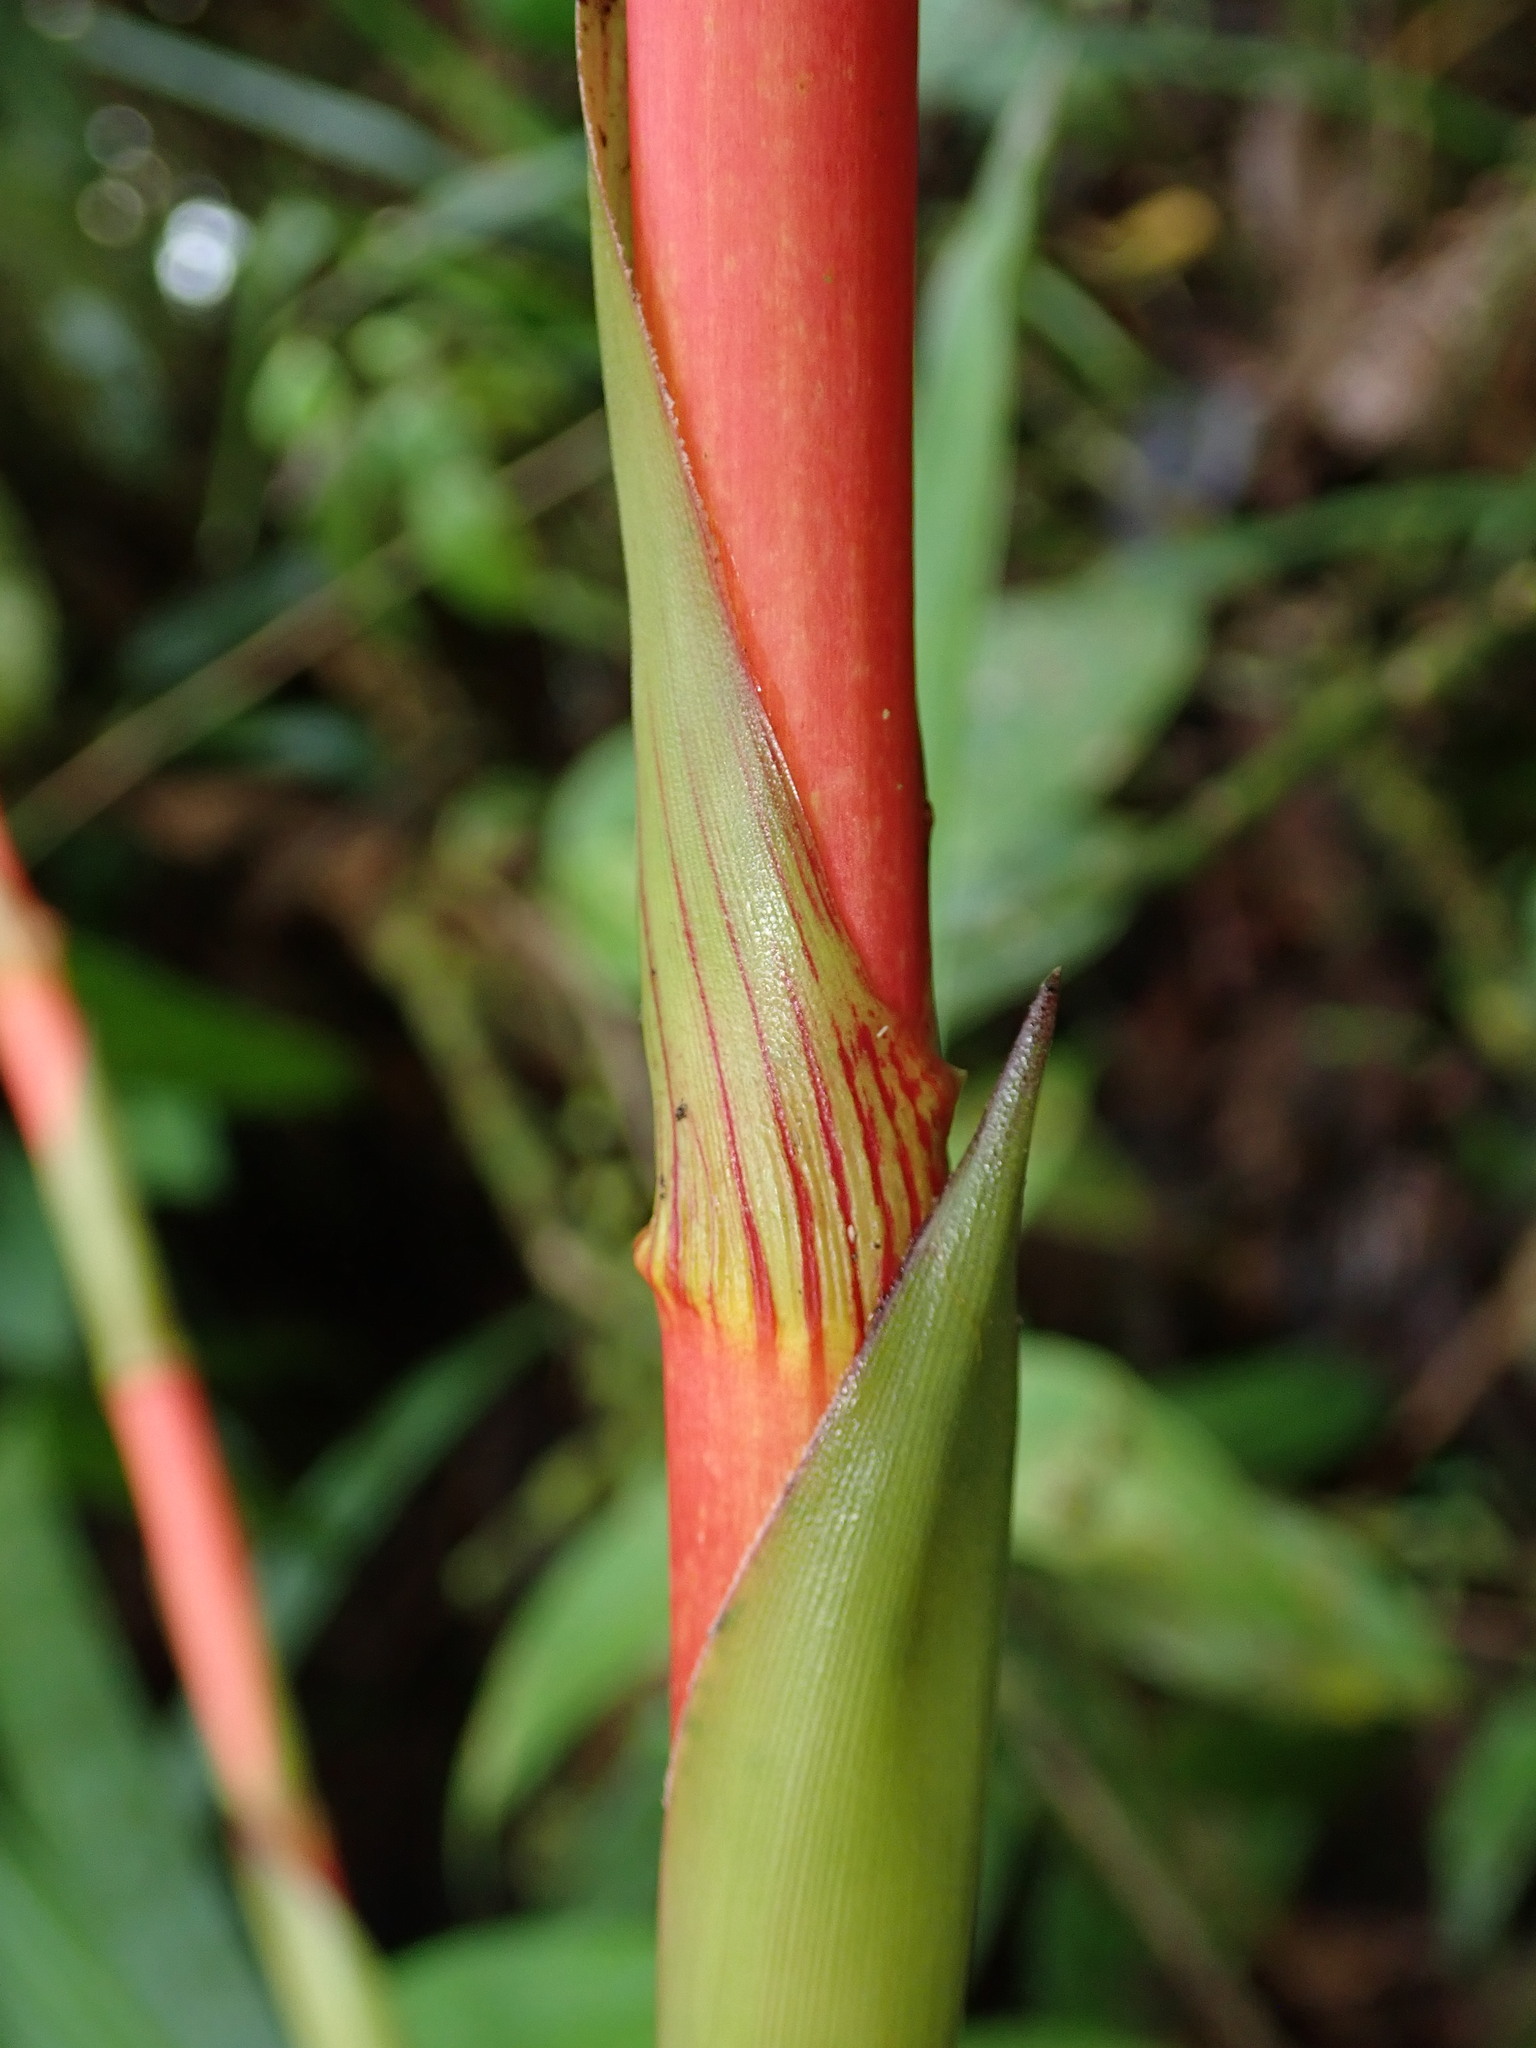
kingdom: Plantae
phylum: Tracheophyta
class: Liliopsida
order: Poales
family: Bromeliaceae
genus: Guzmania
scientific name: Guzmania weberbaueri
